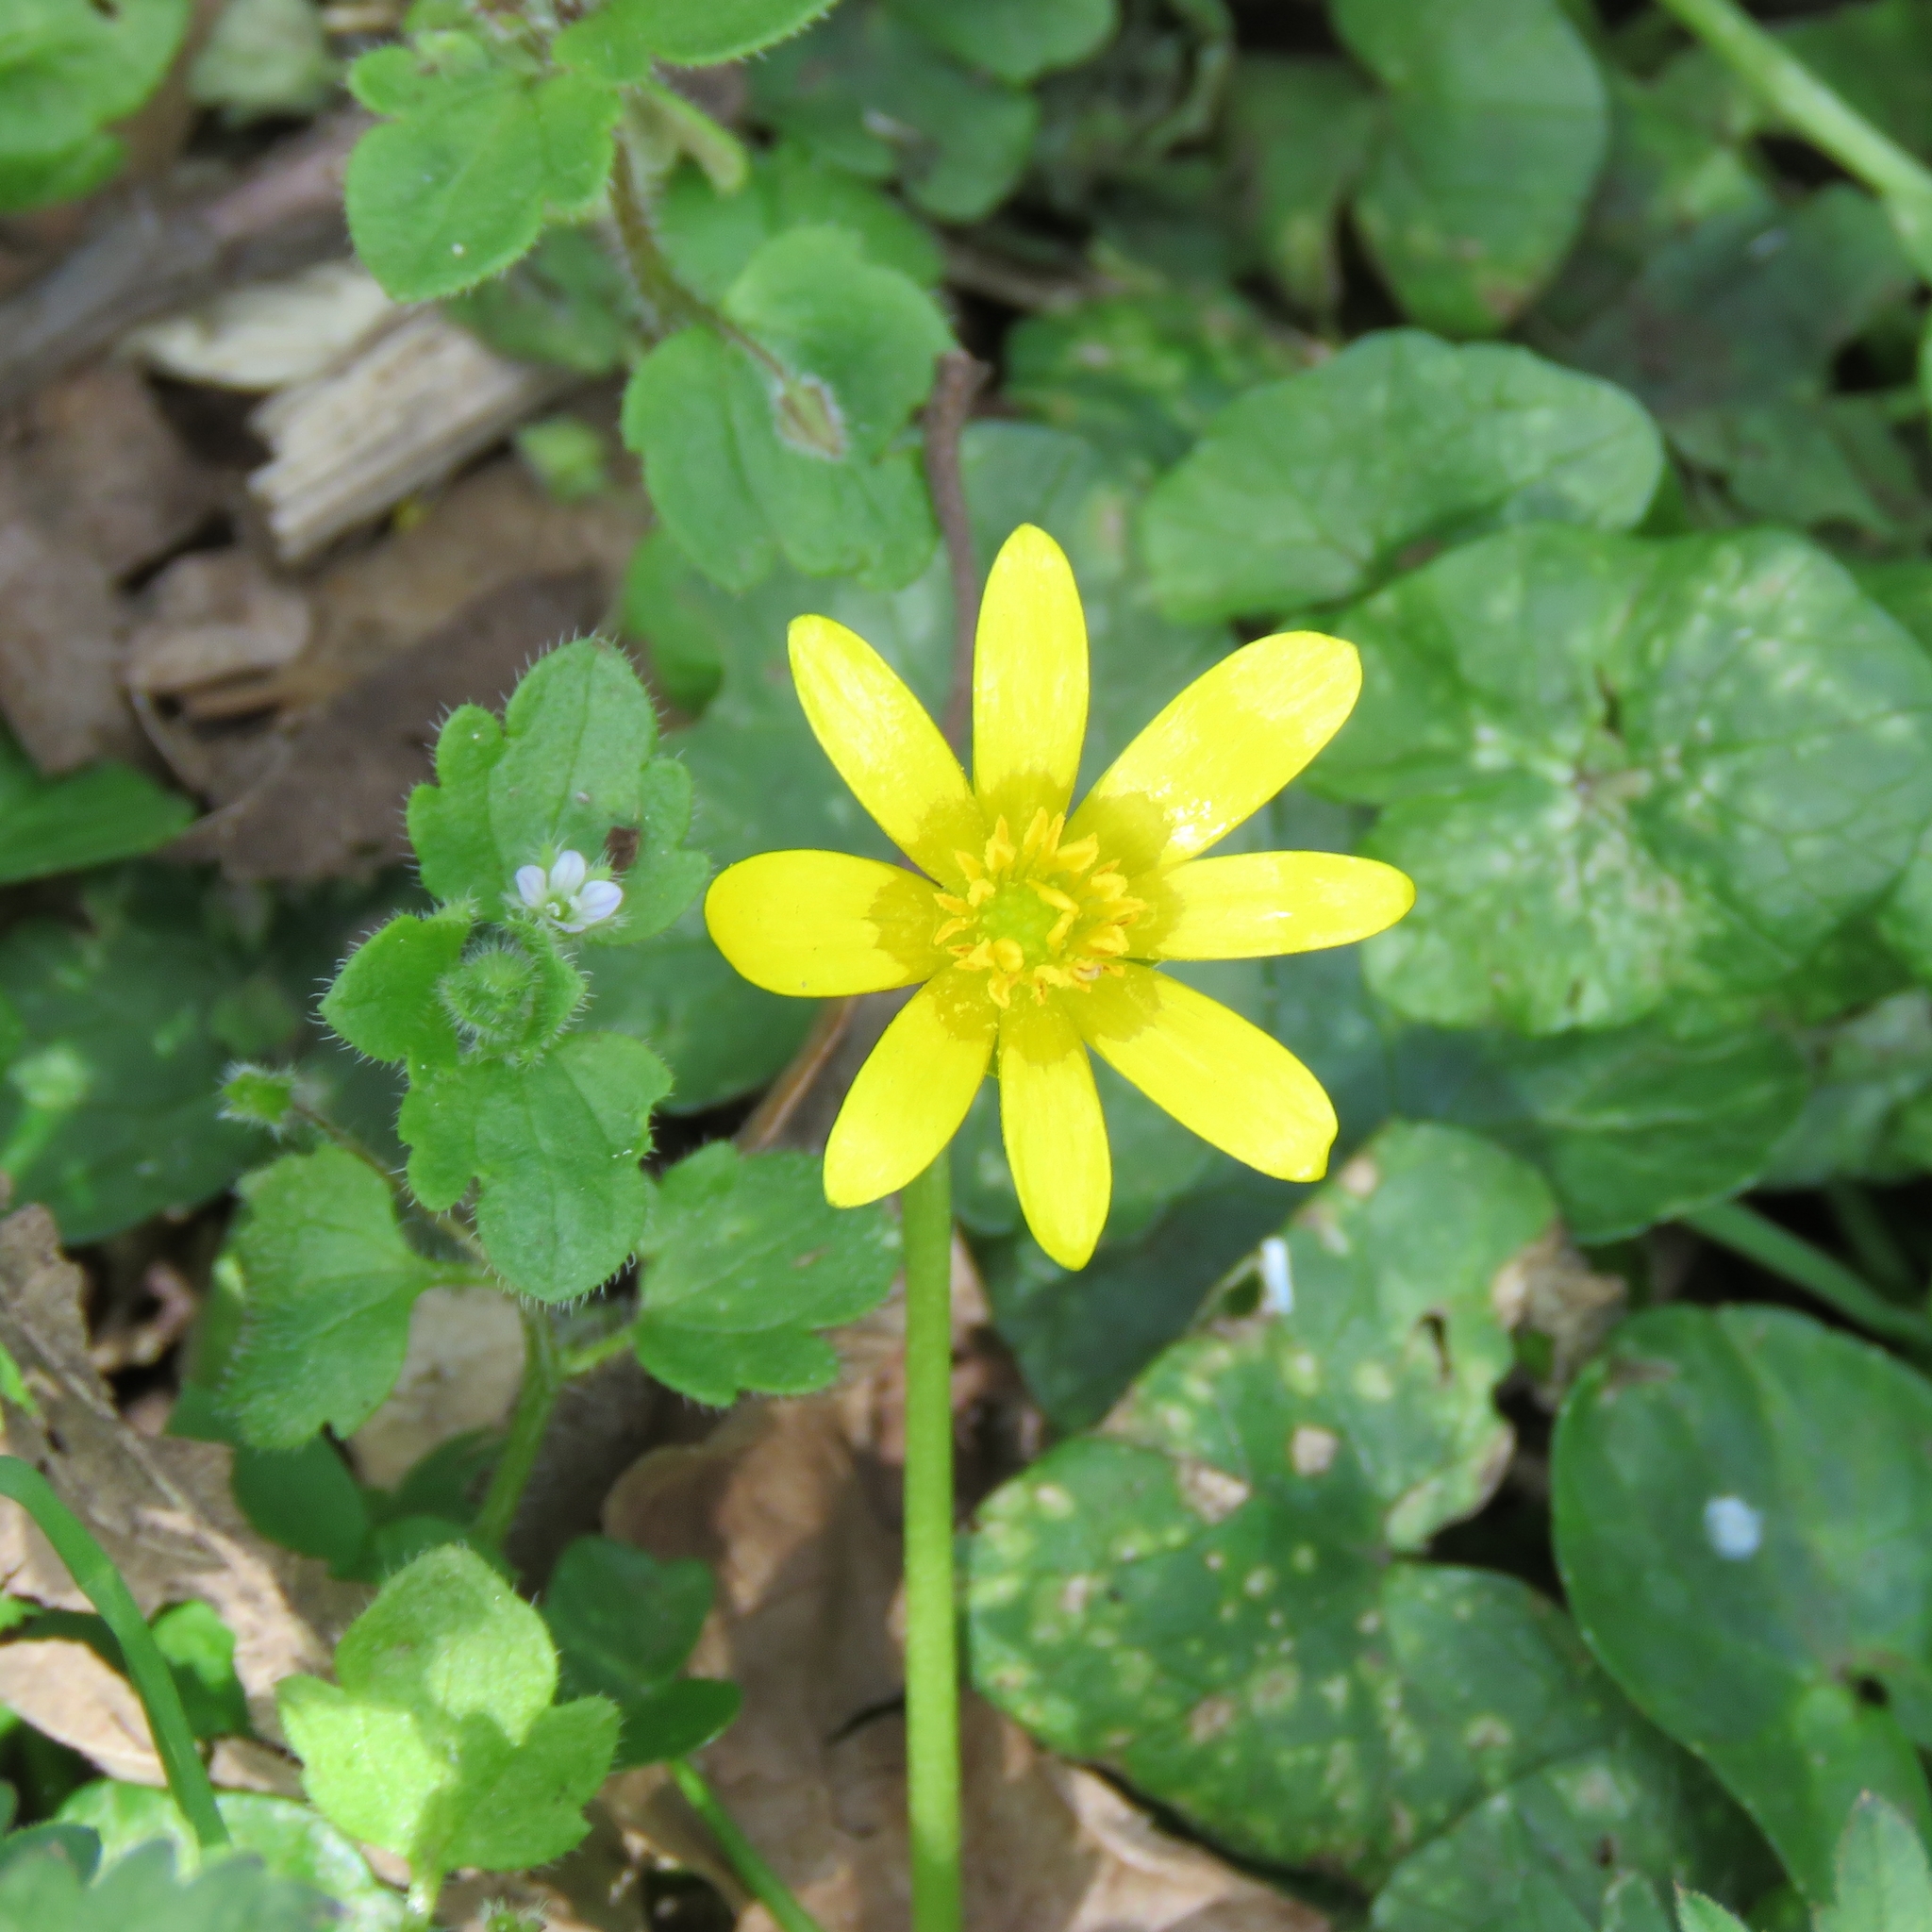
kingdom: Plantae
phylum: Tracheophyta
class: Magnoliopsida
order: Ranunculales
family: Ranunculaceae
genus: Ficaria
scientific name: Ficaria verna
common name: Lesser celandine
